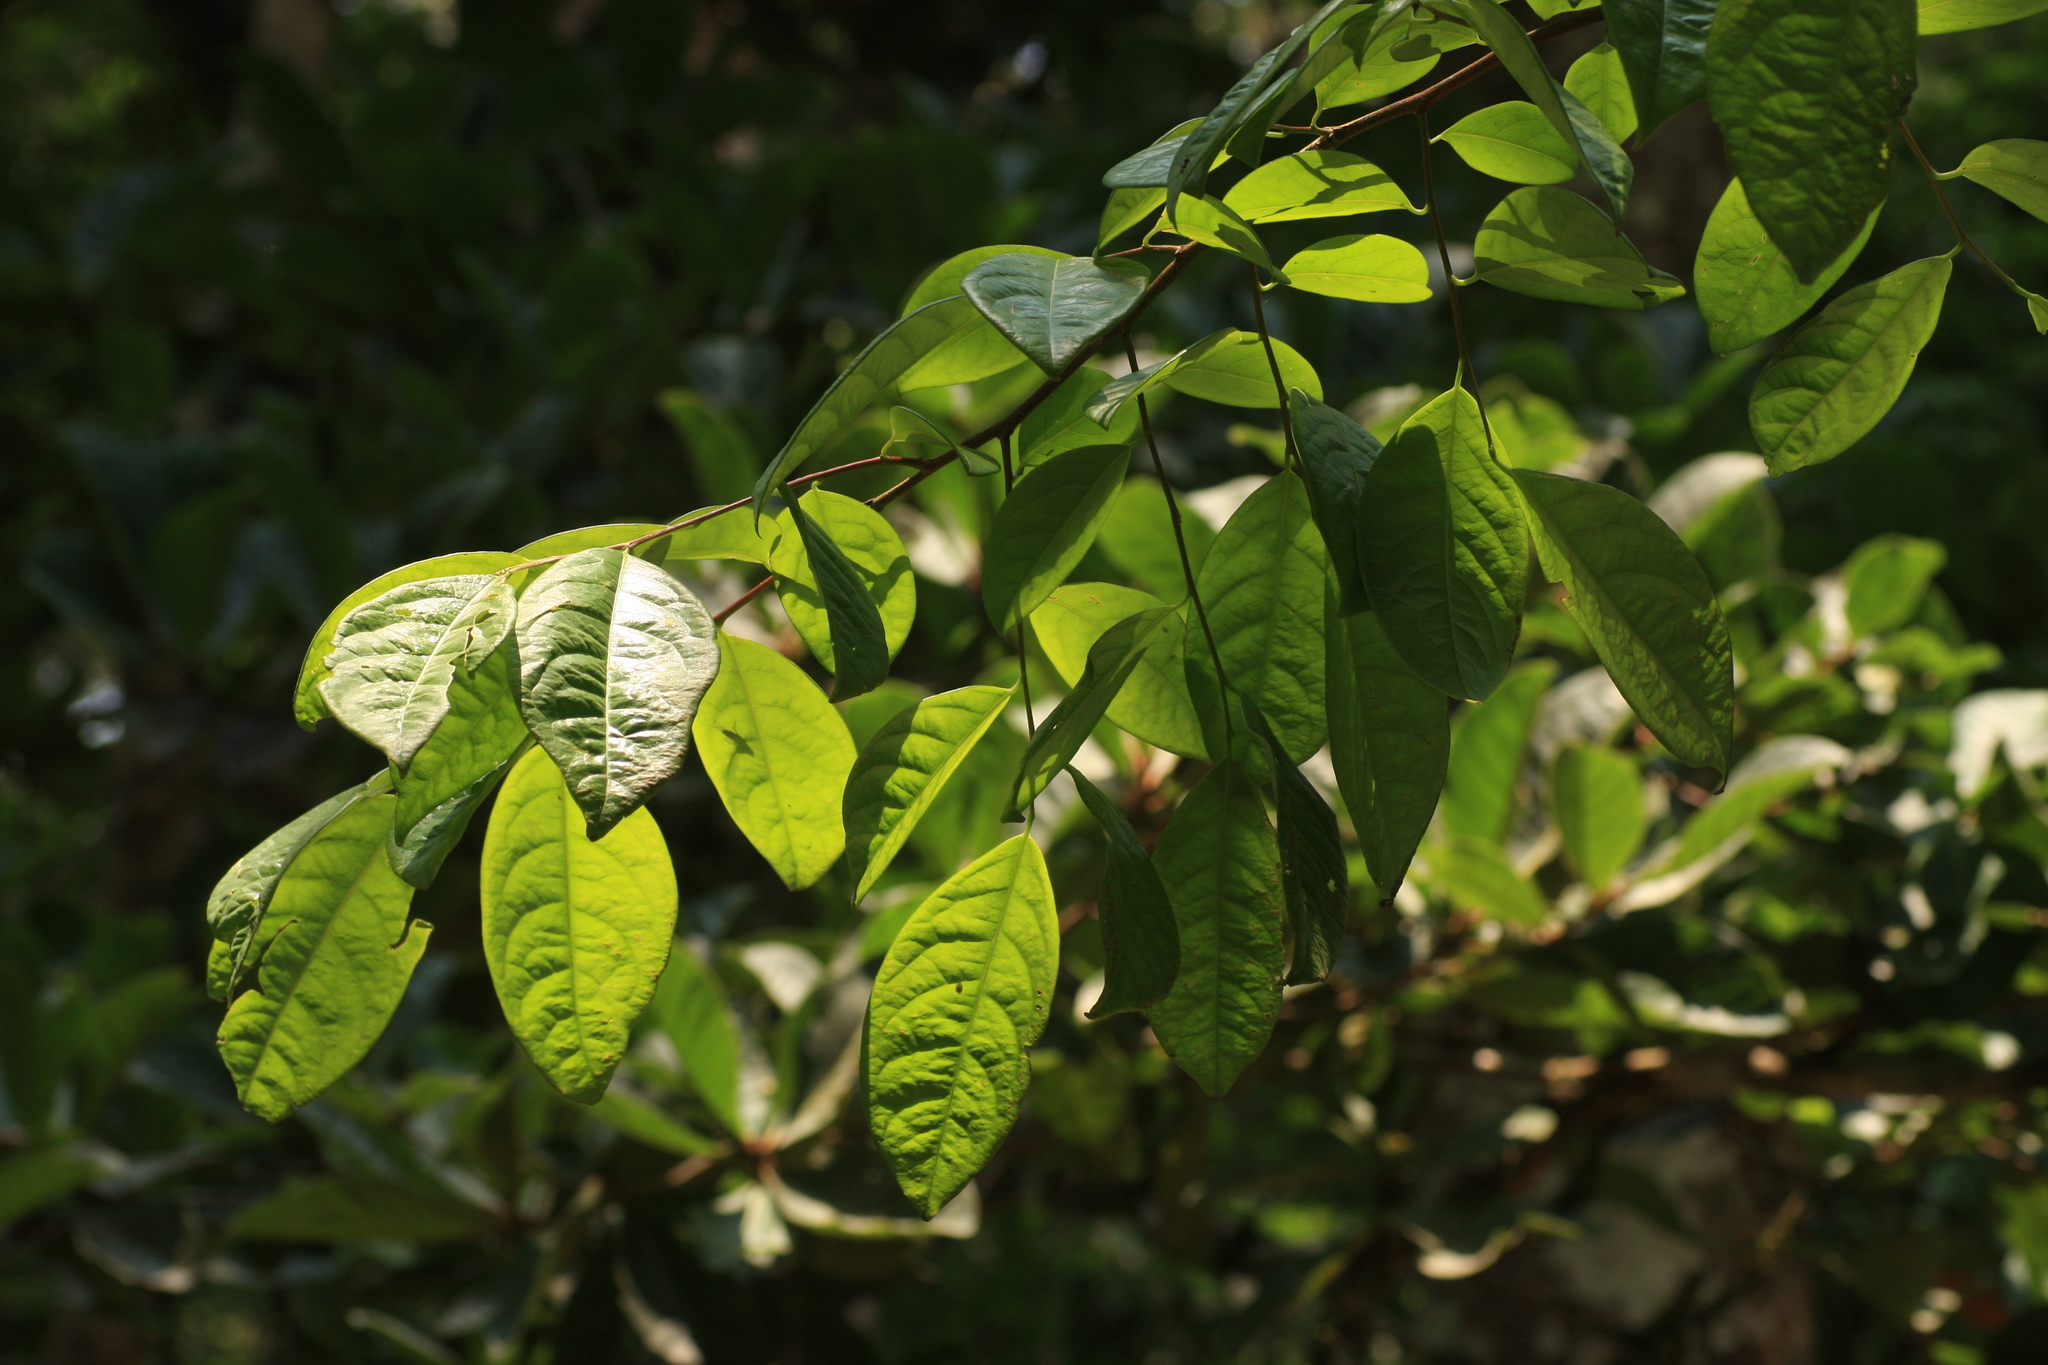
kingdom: Plantae
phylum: Tracheophyta
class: Magnoliopsida
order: Malpighiales
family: Phyllanthaceae
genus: Margaritaria
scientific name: Margaritaria indica
